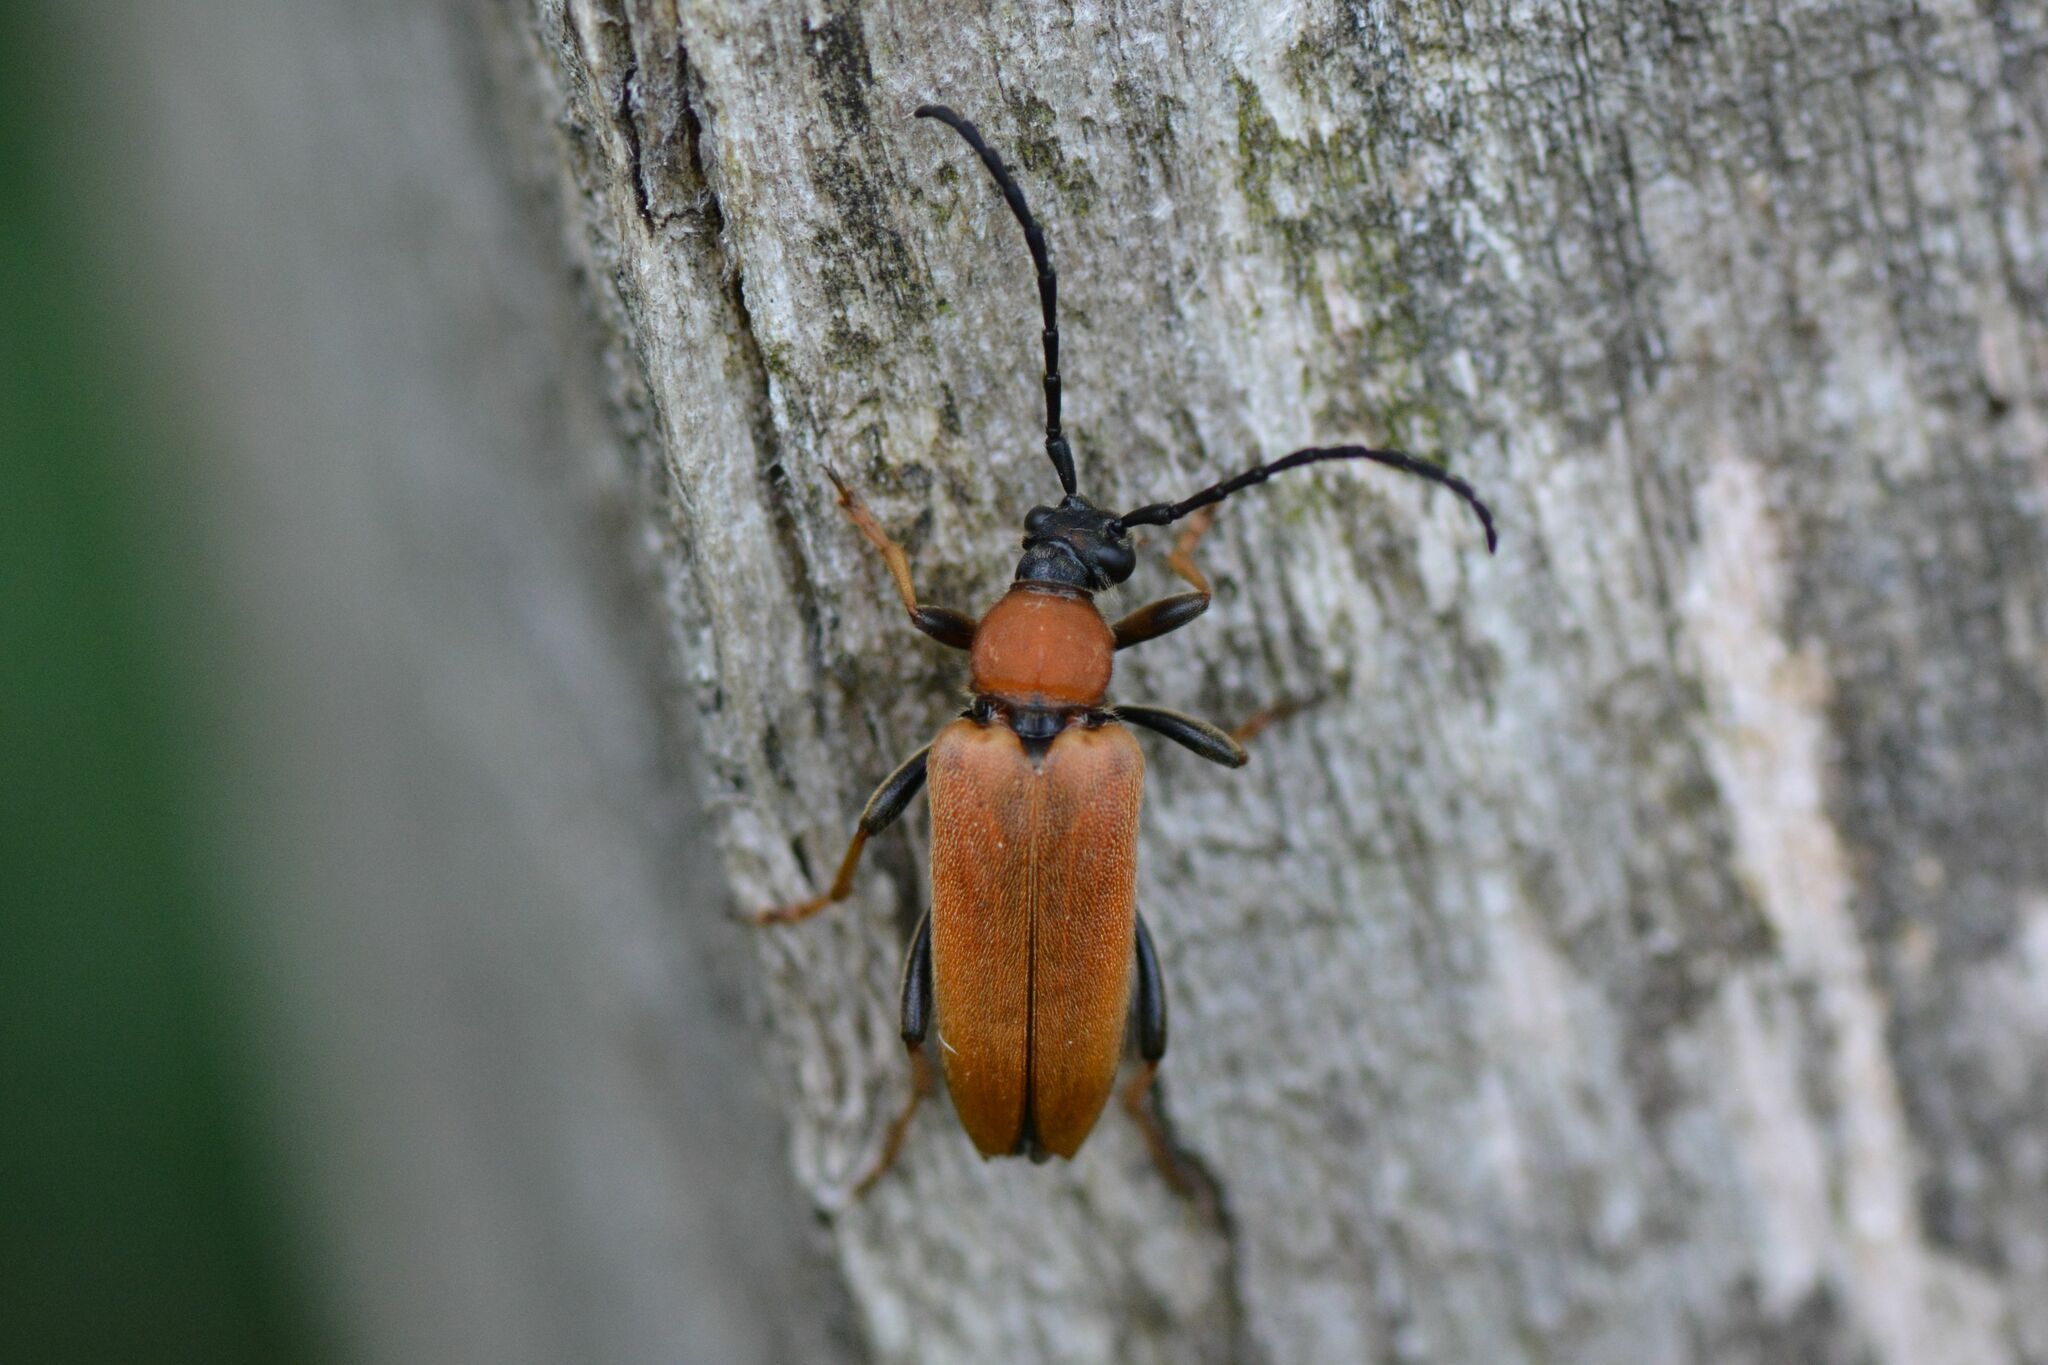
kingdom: Animalia
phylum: Arthropoda
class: Insecta
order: Coleoptera
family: Cerambycidae
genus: Stictoleptura
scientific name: Stictoleptura rubra
